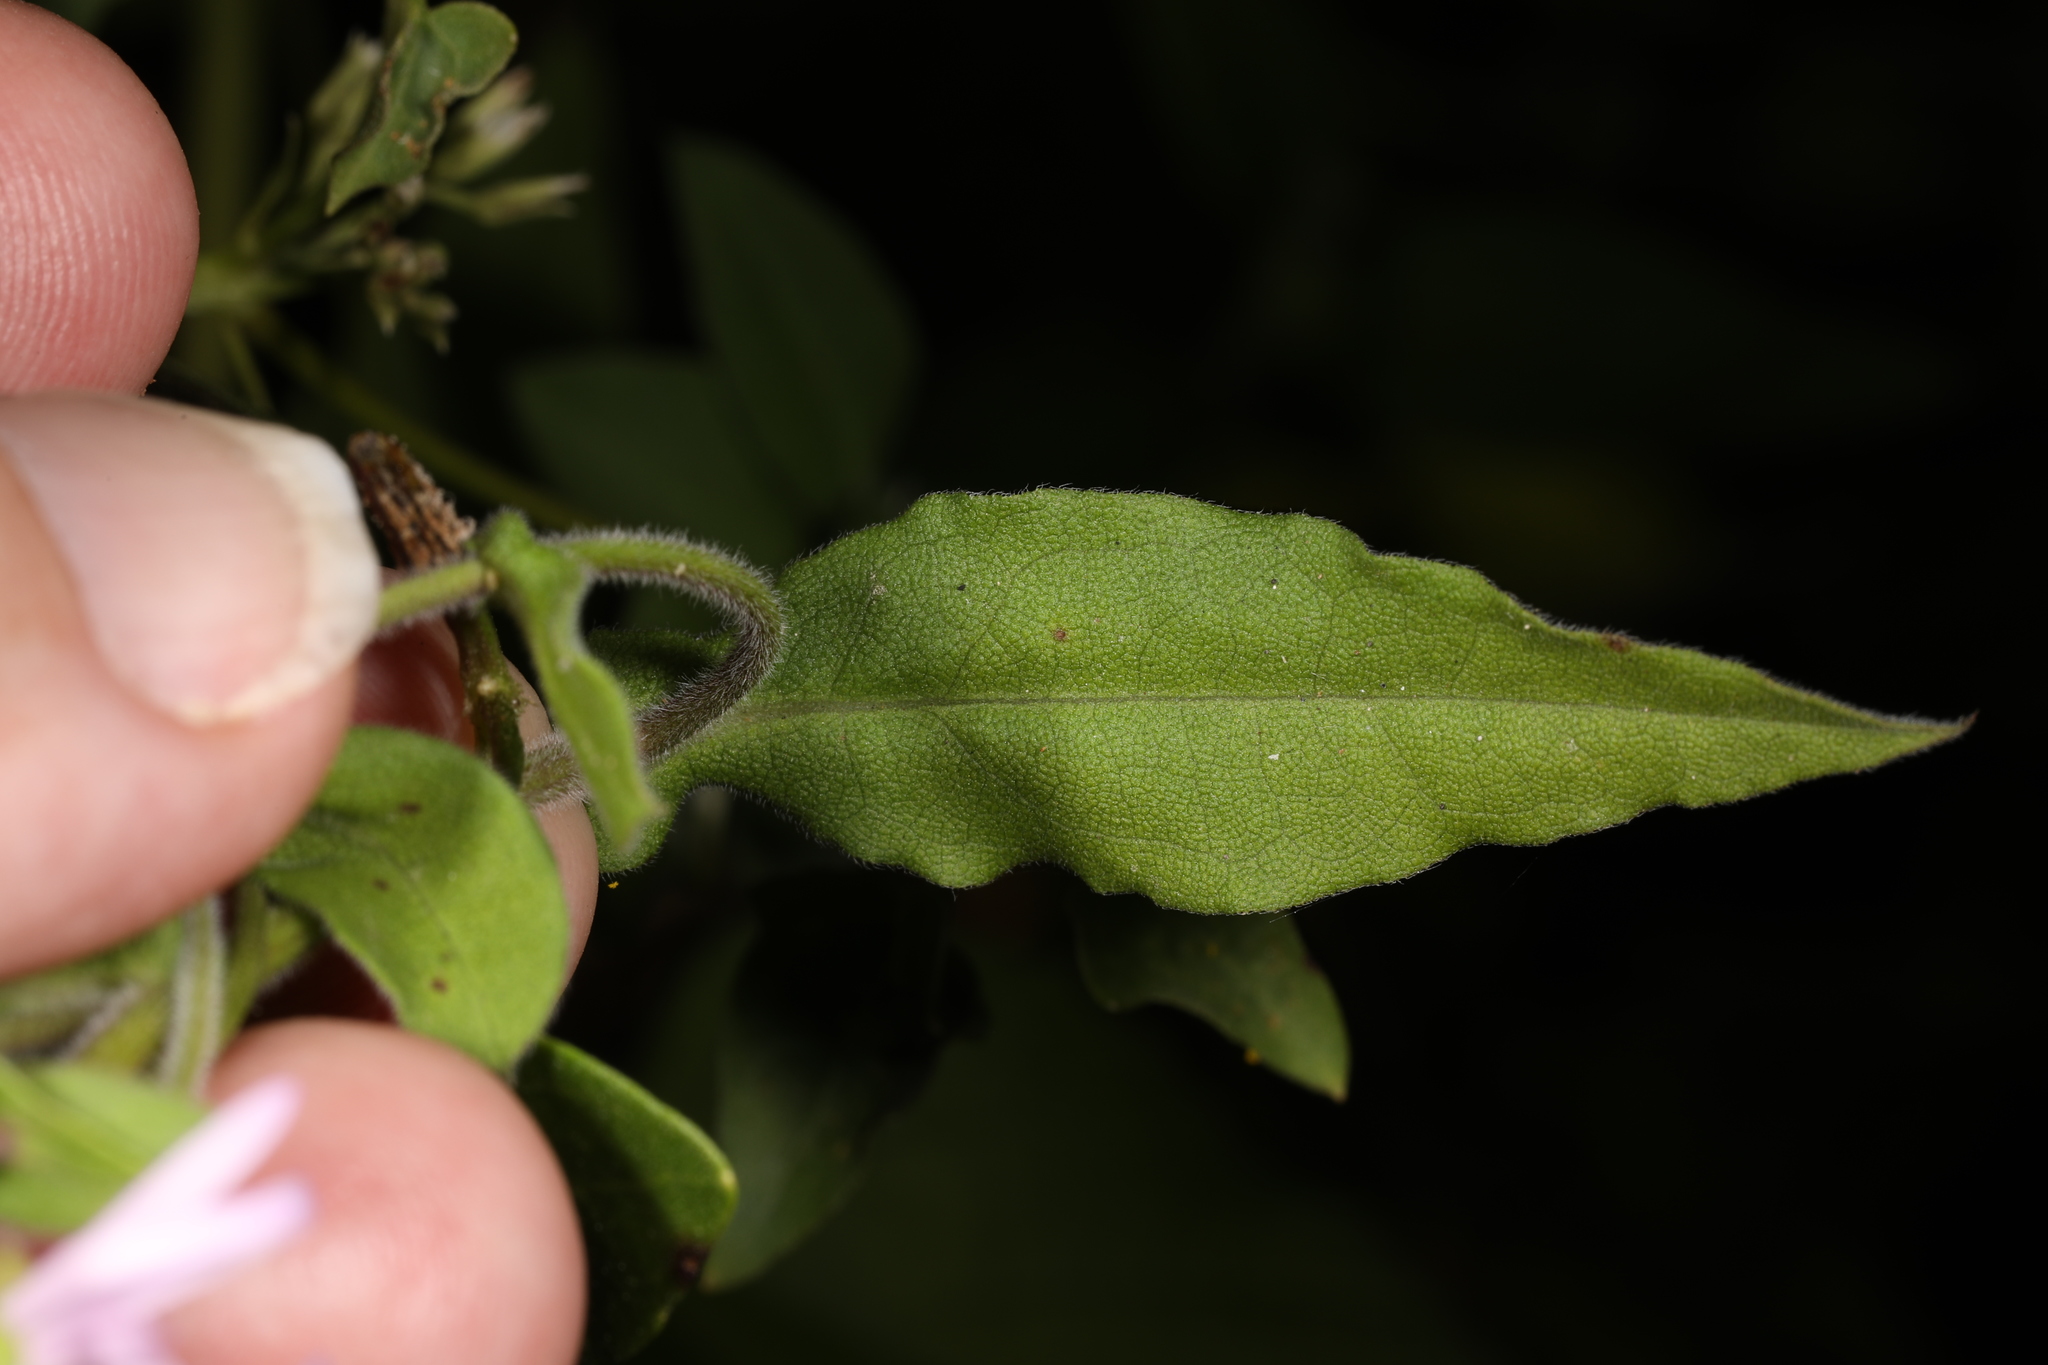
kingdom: Plantae
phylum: Tracheophyta
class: Magnoliopsida
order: Asterales
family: Asteraceae
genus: Ampelaster
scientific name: Ampelaster carolinianus
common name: Climbing aster
